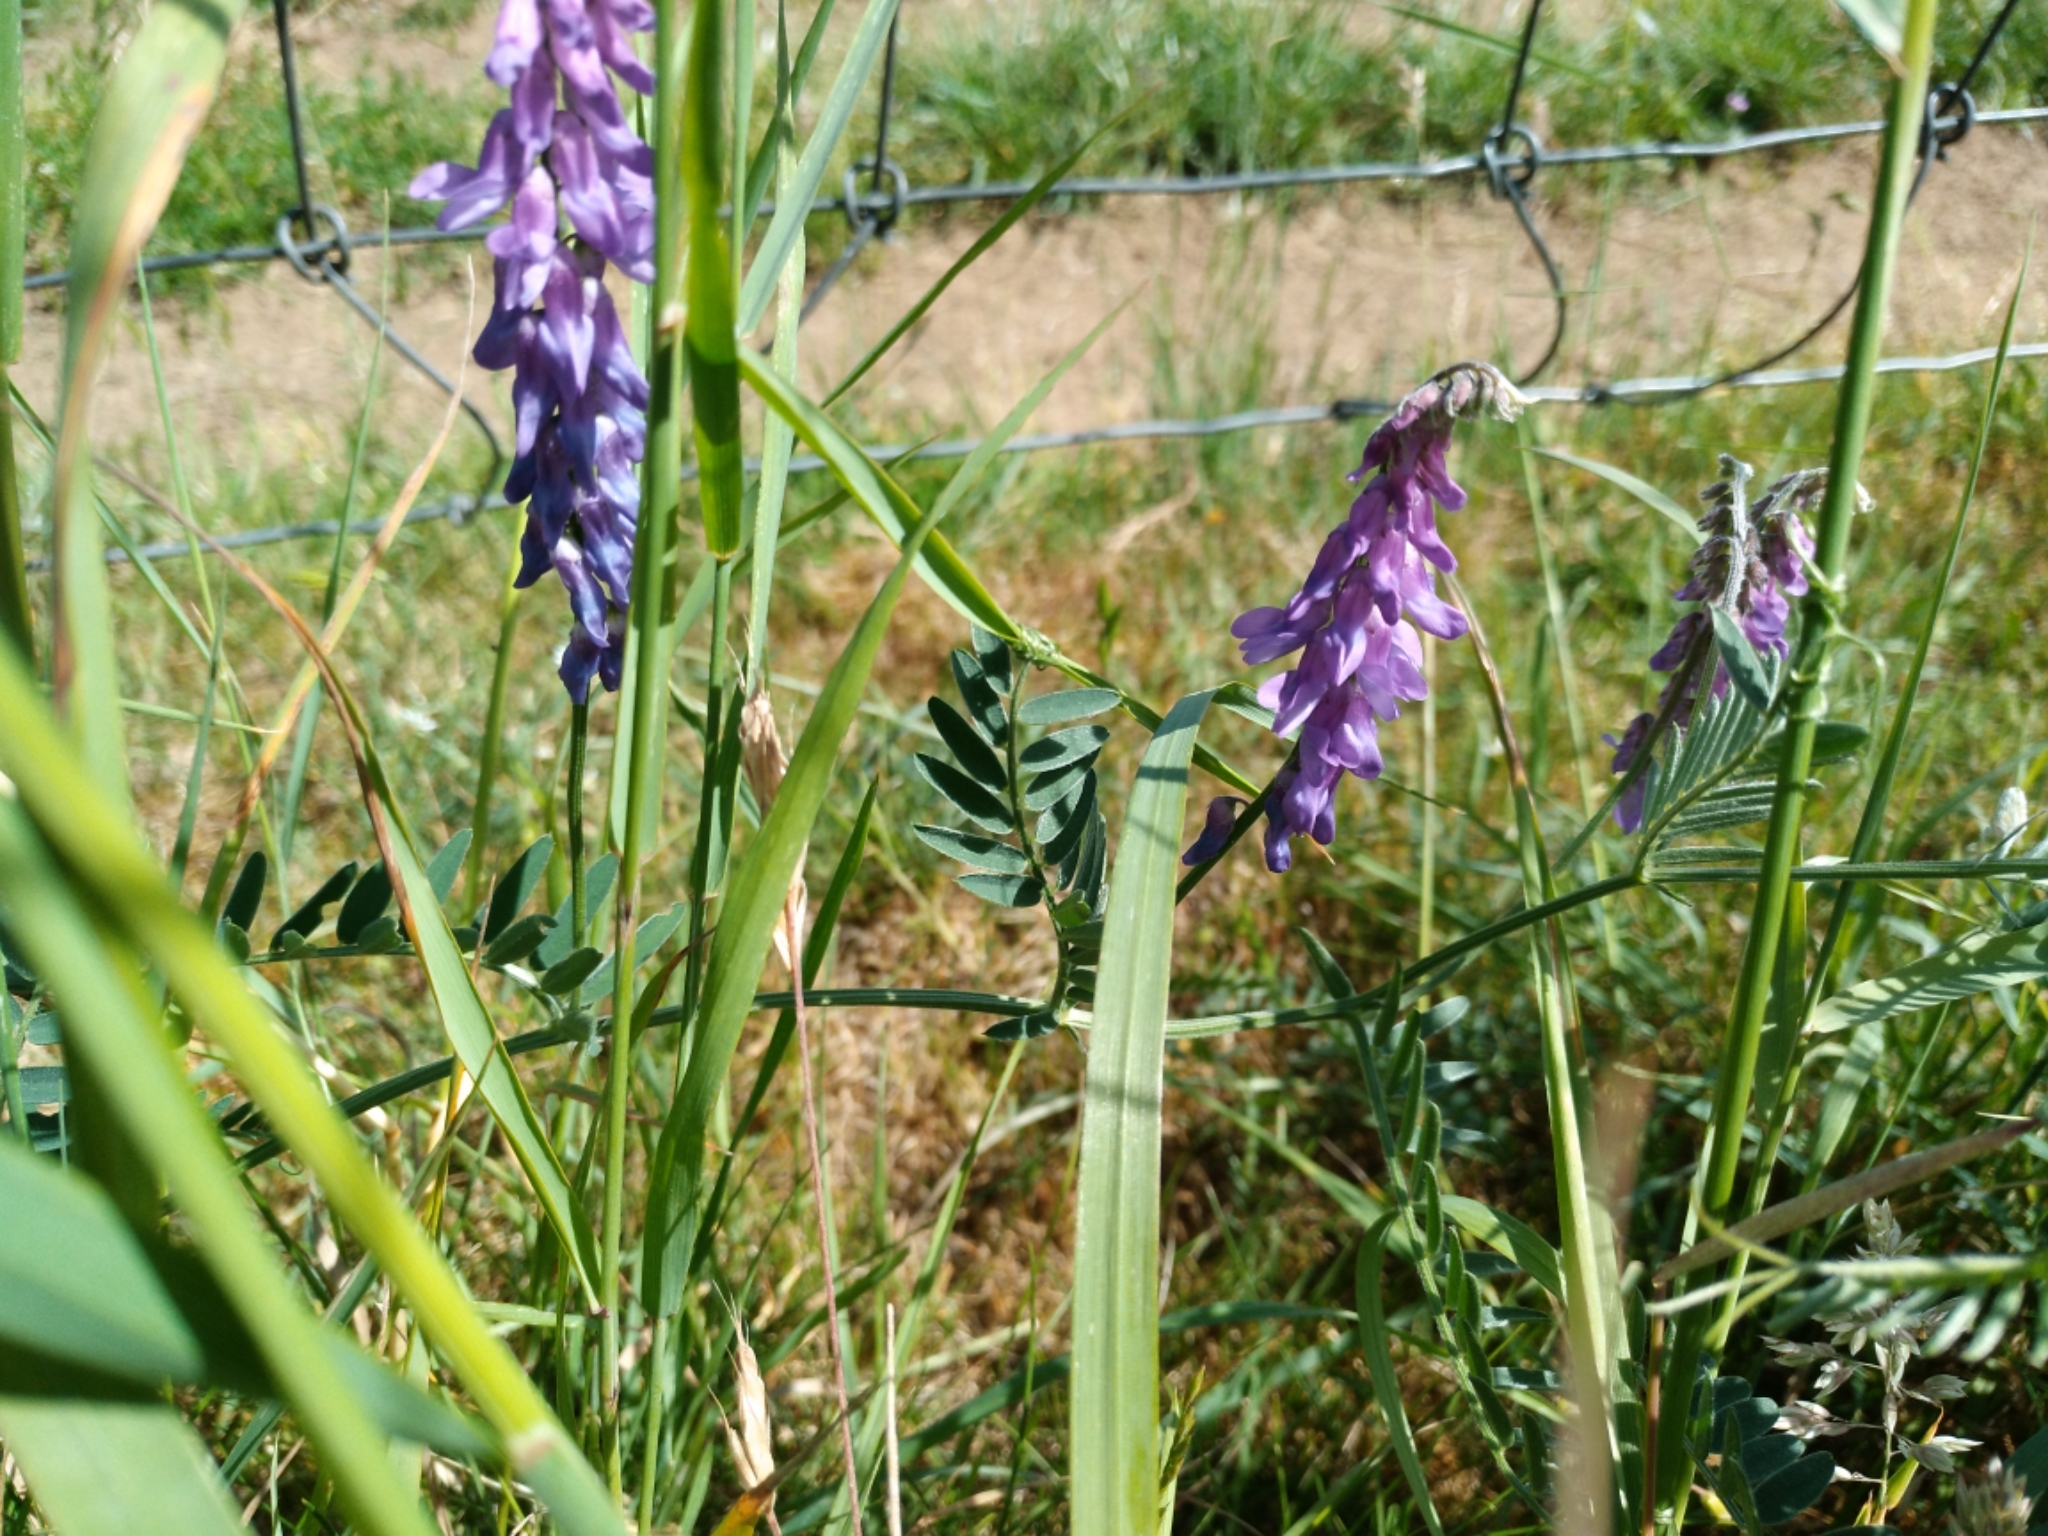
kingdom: Plantae
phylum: Tracheophyta
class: Magnoliopsida
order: Fabales
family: Fabaceae
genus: Vicia
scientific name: Vicia cracca
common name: Bird vetch
